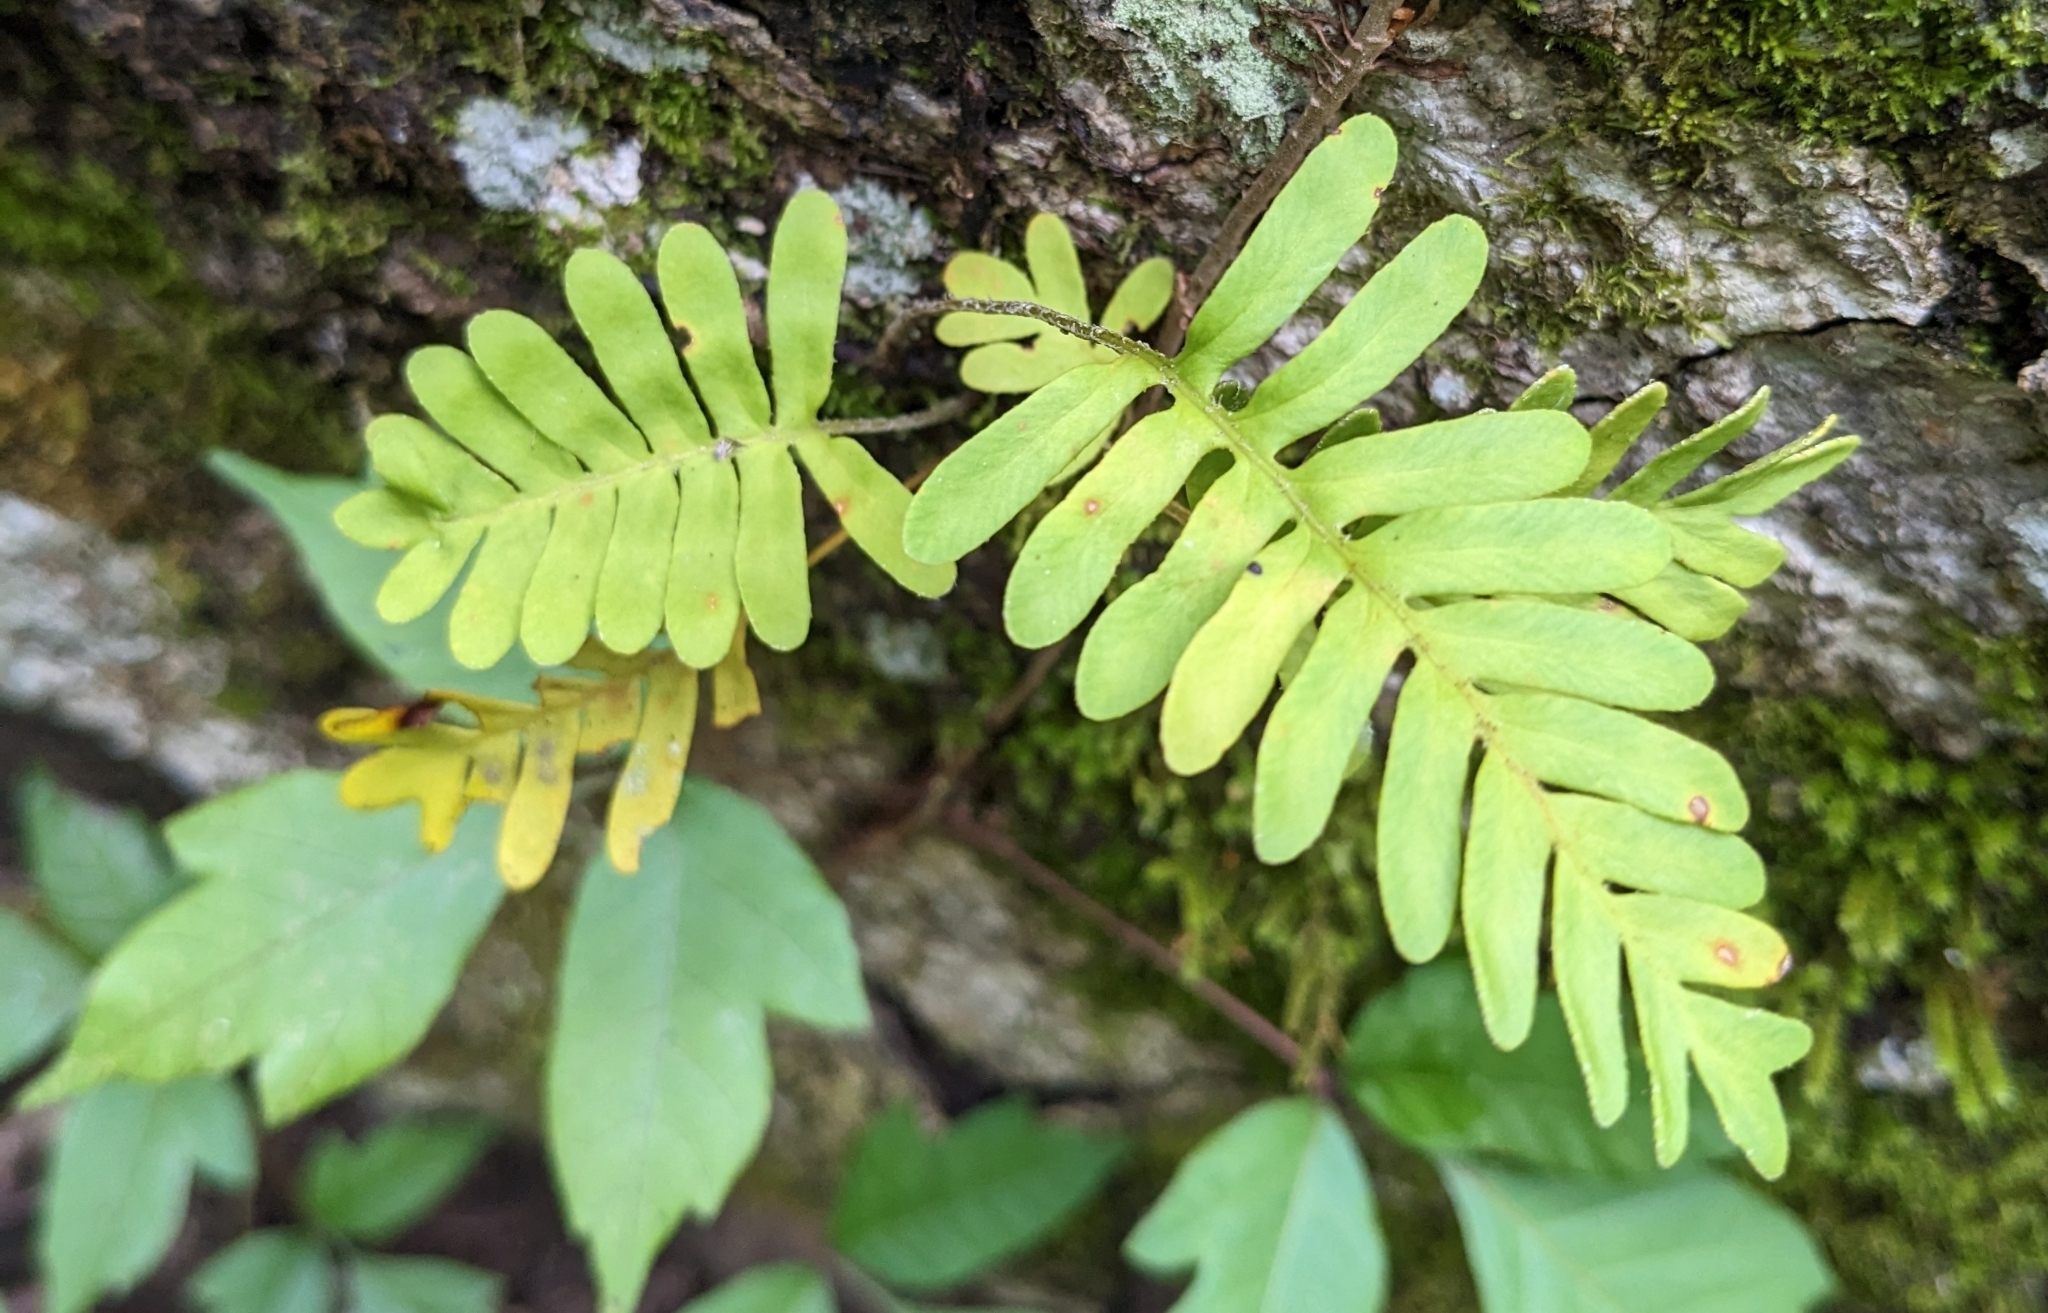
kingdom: Plantae
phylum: Tracheophyta
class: Polypodiopsida
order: Polypodiales
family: Polypodiaceae
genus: Pleopeltis
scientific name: Pleopeltis michauxiana
